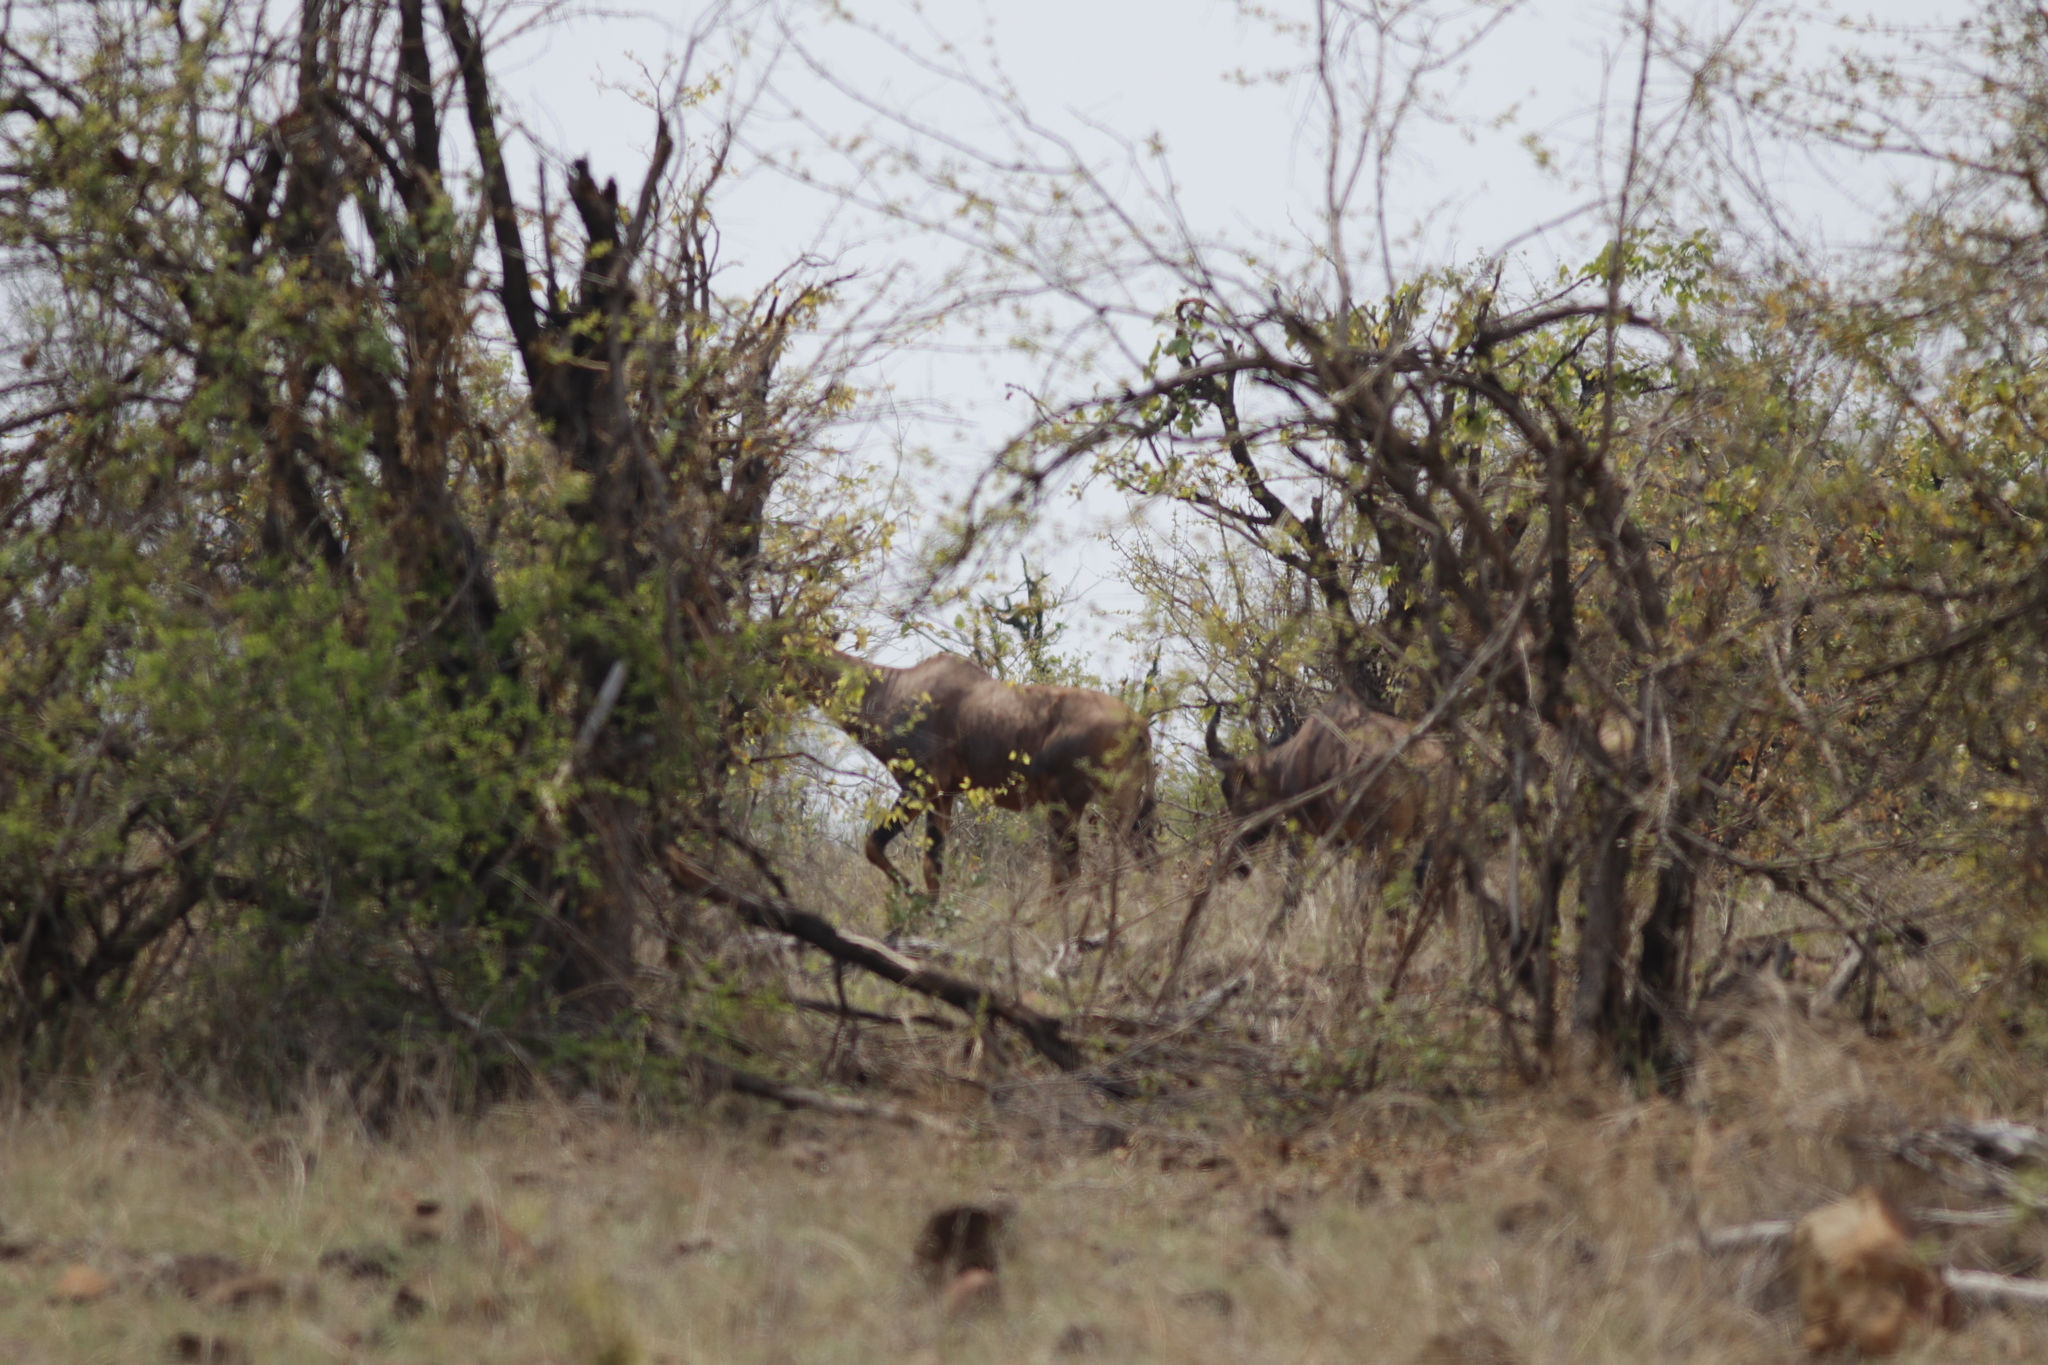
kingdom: Animalia
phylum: Chordata
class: Mammalia
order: Artiodactyla
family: Bovidae
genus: Damaliscus
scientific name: Damaliscus lunatus
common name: Common tsessebe
